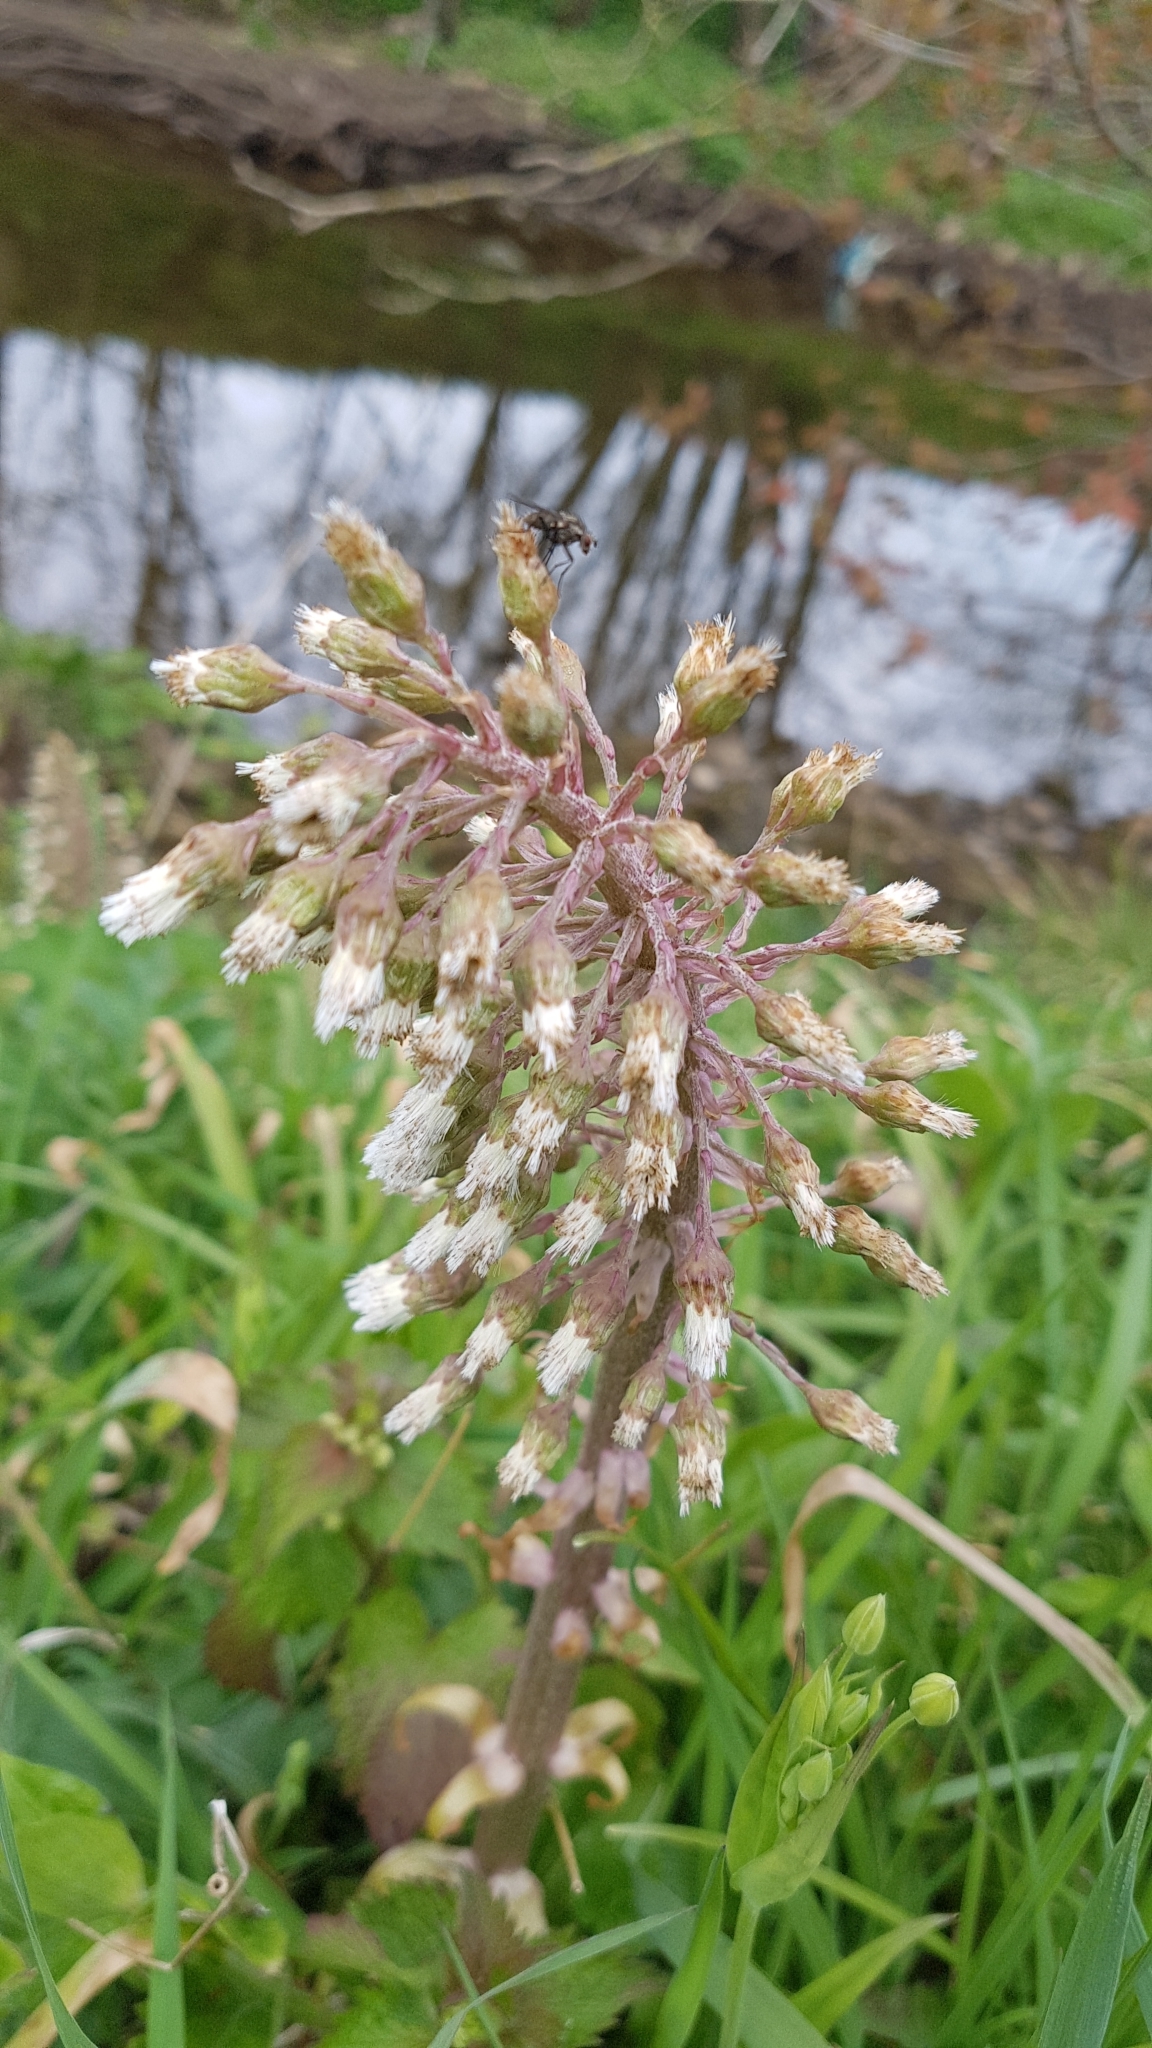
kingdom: Plantae
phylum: Tracheophyta
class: Magnoliopsida
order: Asterales
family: Asteraceae
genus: Petasites
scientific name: Petasites hybridus
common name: Butterbur
